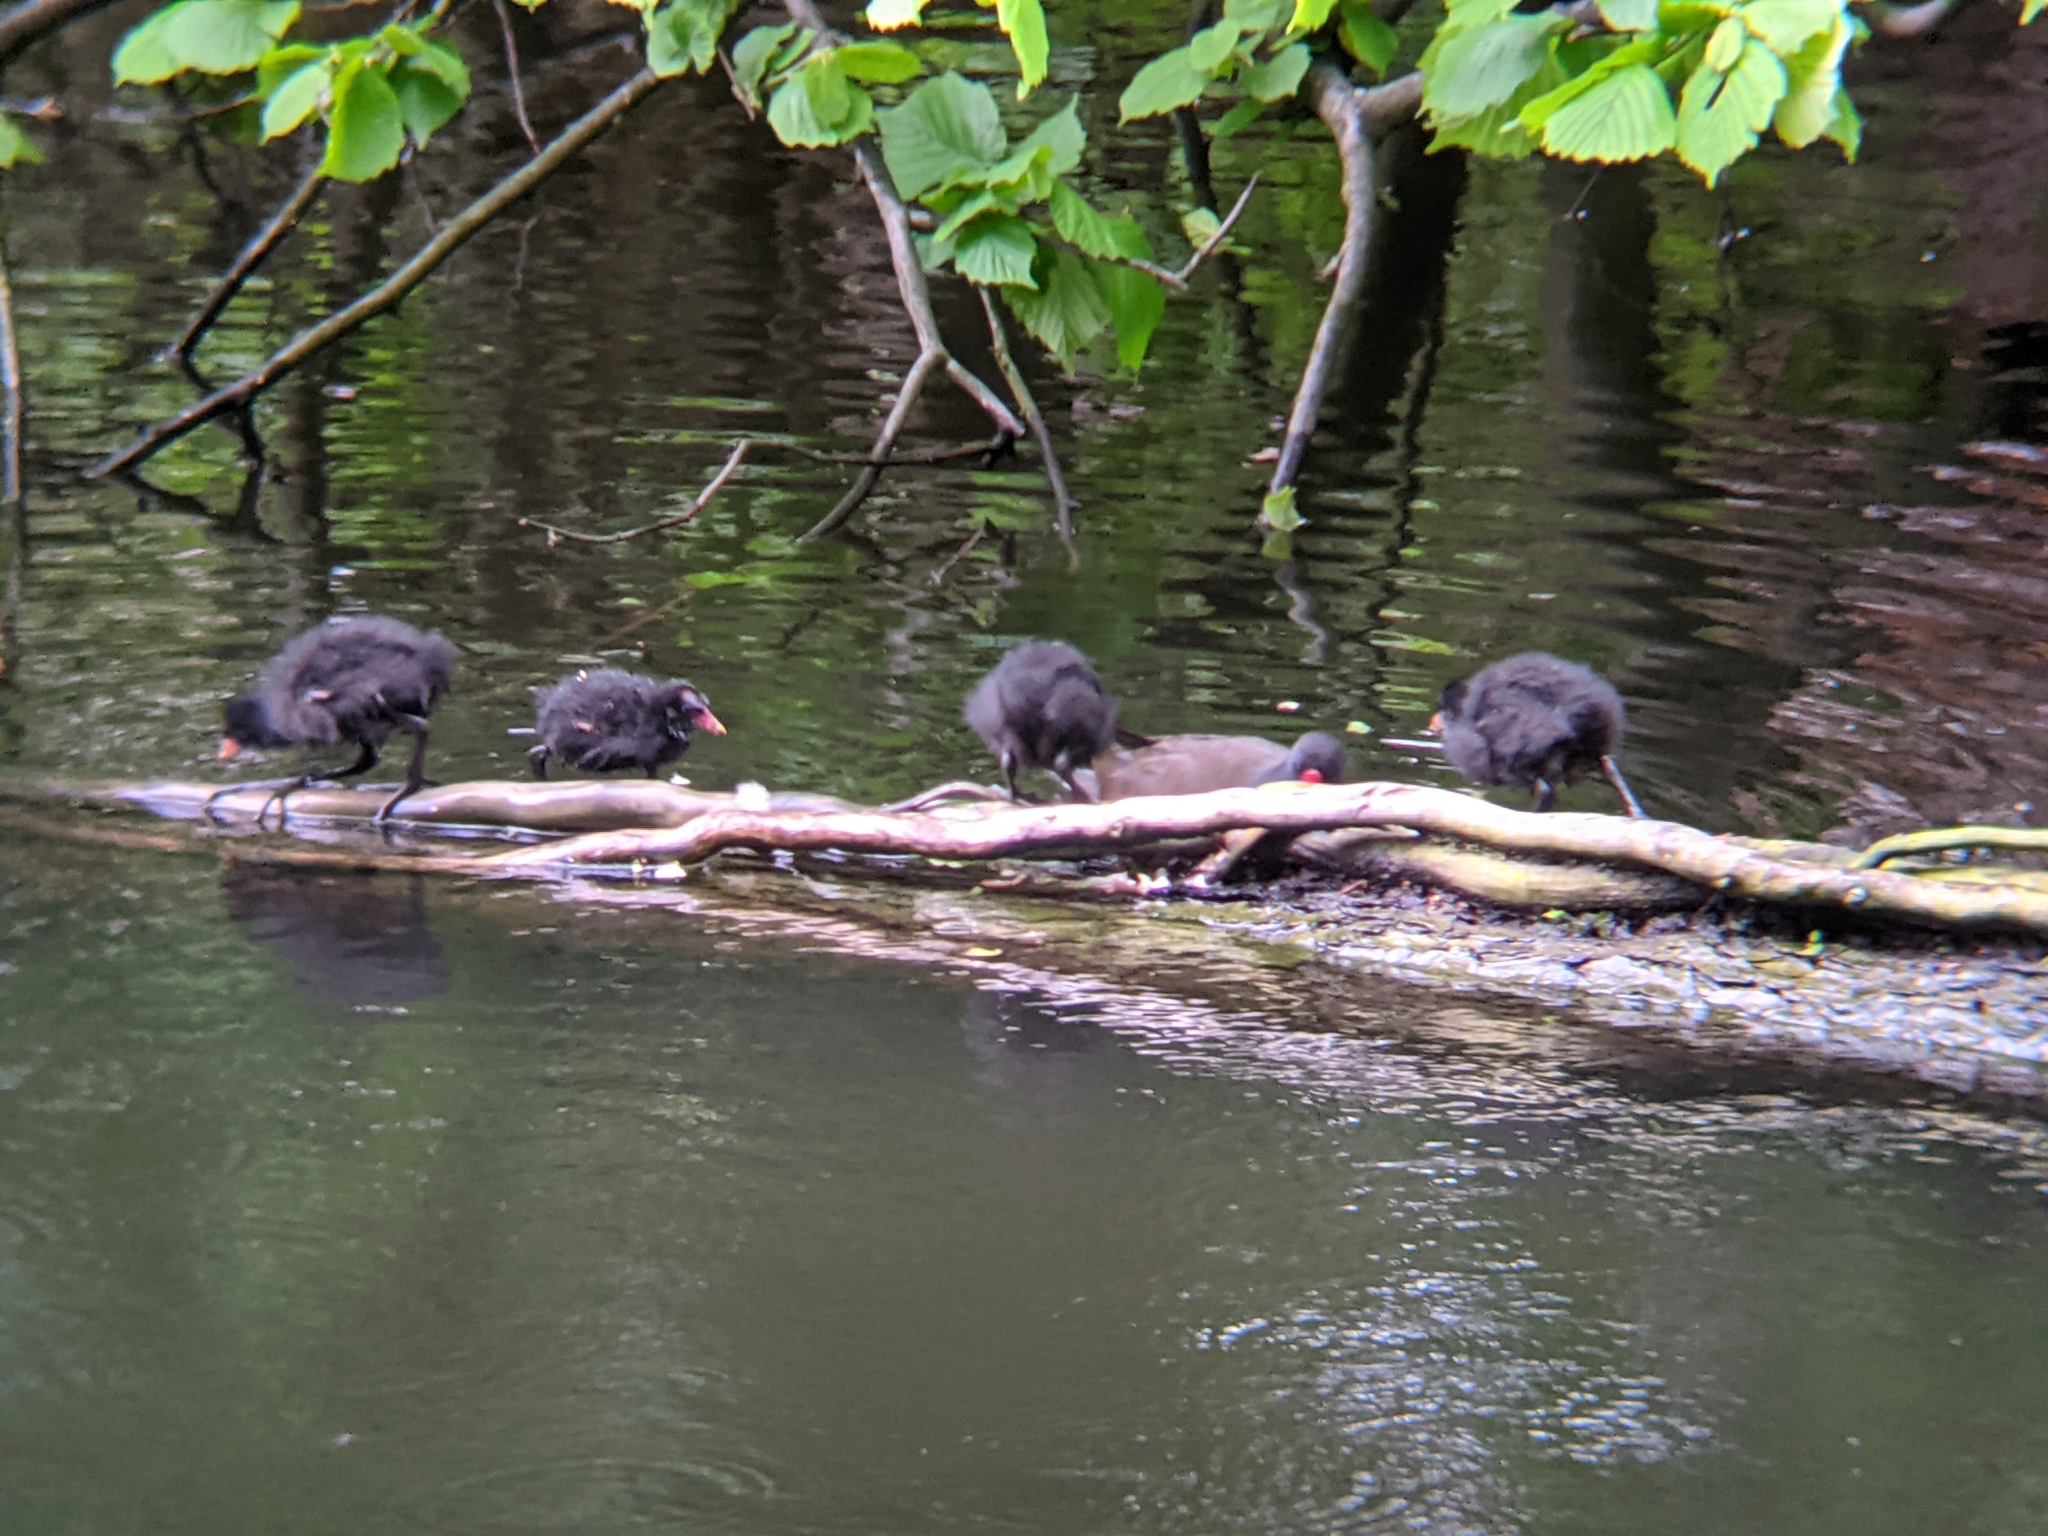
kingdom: Animalia
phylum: Chordata
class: Aves
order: Gruiformes
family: Rallidae
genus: Gallinula
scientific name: Gallinula chloropus
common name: Common moorhen
